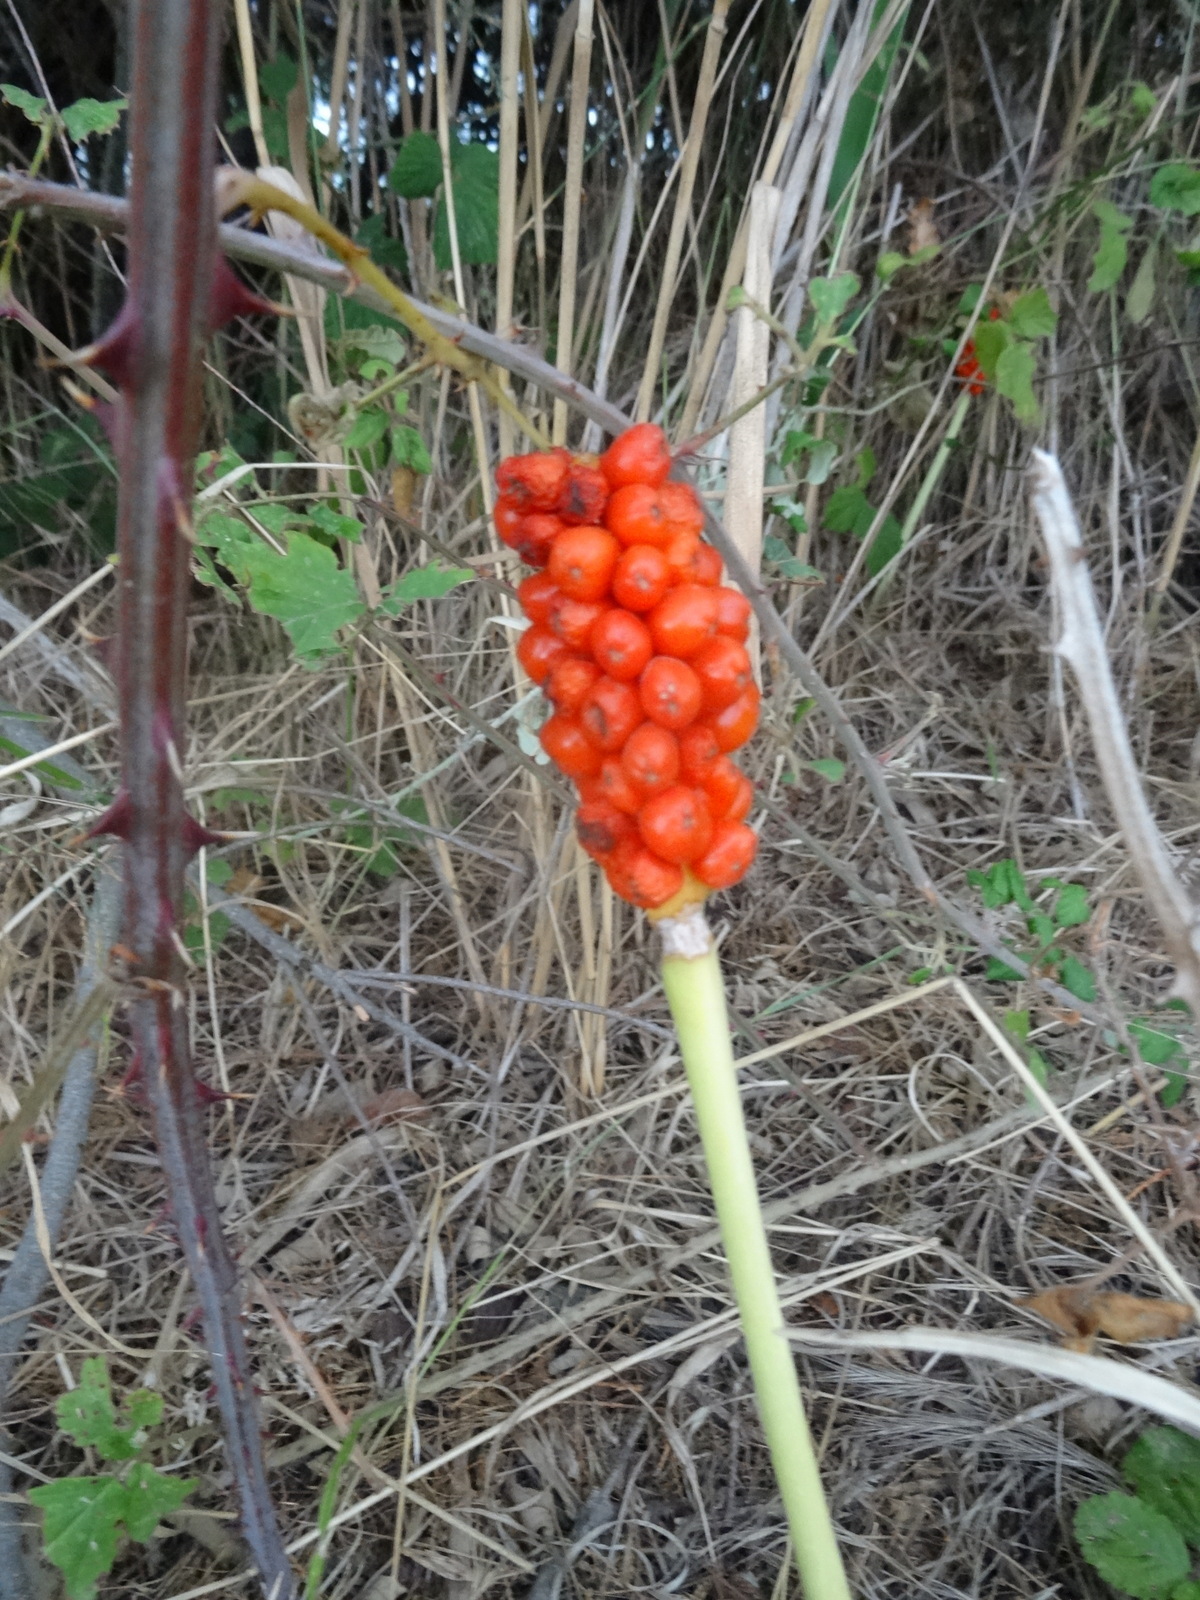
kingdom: Plantae
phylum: Tracheophyta
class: Liliopsida
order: Alismatales
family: Araceae
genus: Arum
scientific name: Arum
